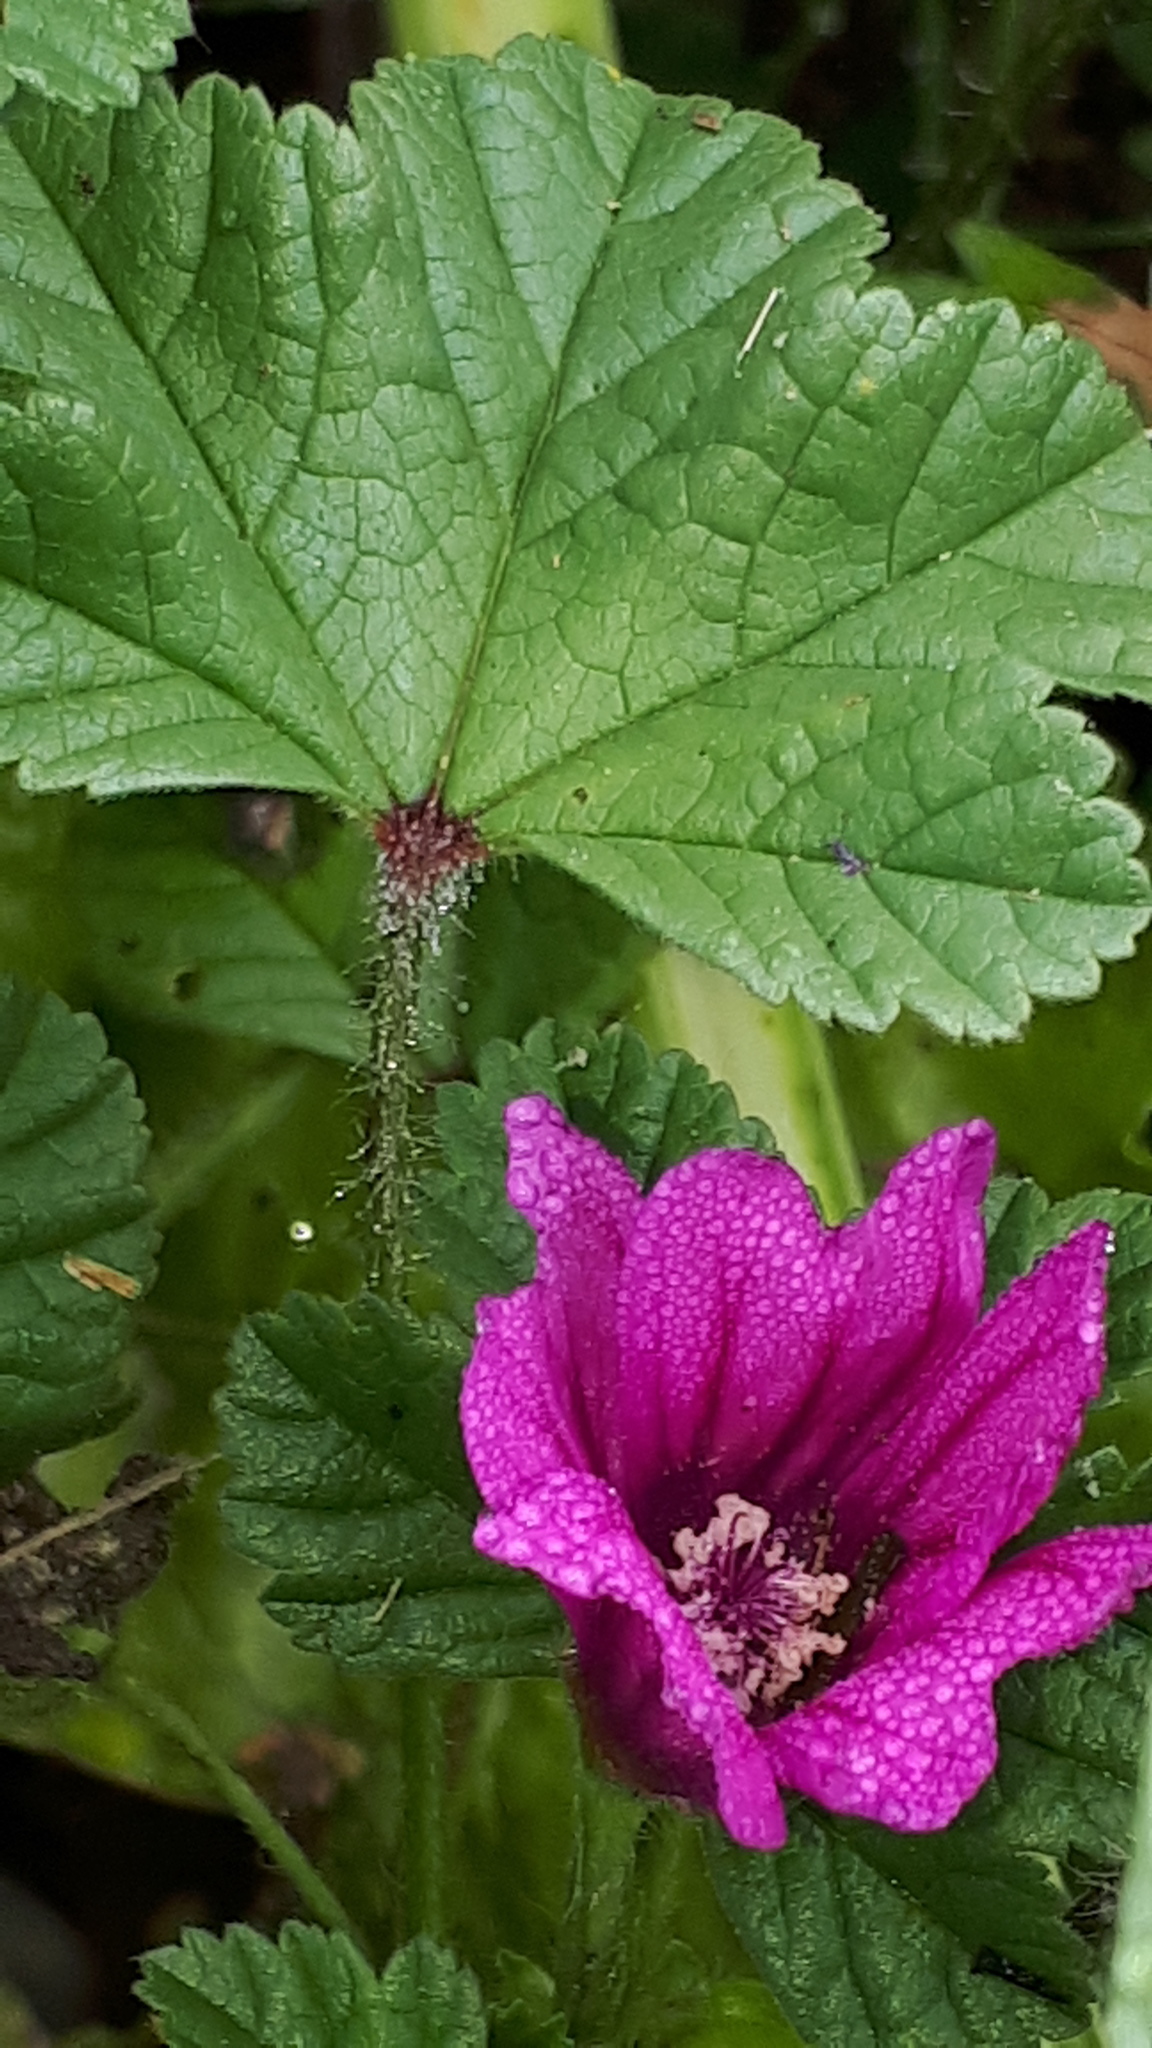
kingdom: Plantae
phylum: Tracheophyta
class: Magnoliopsida
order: Malvales
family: Malvaceae
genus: Malva
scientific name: Malva sylvestris
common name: Common mallow
